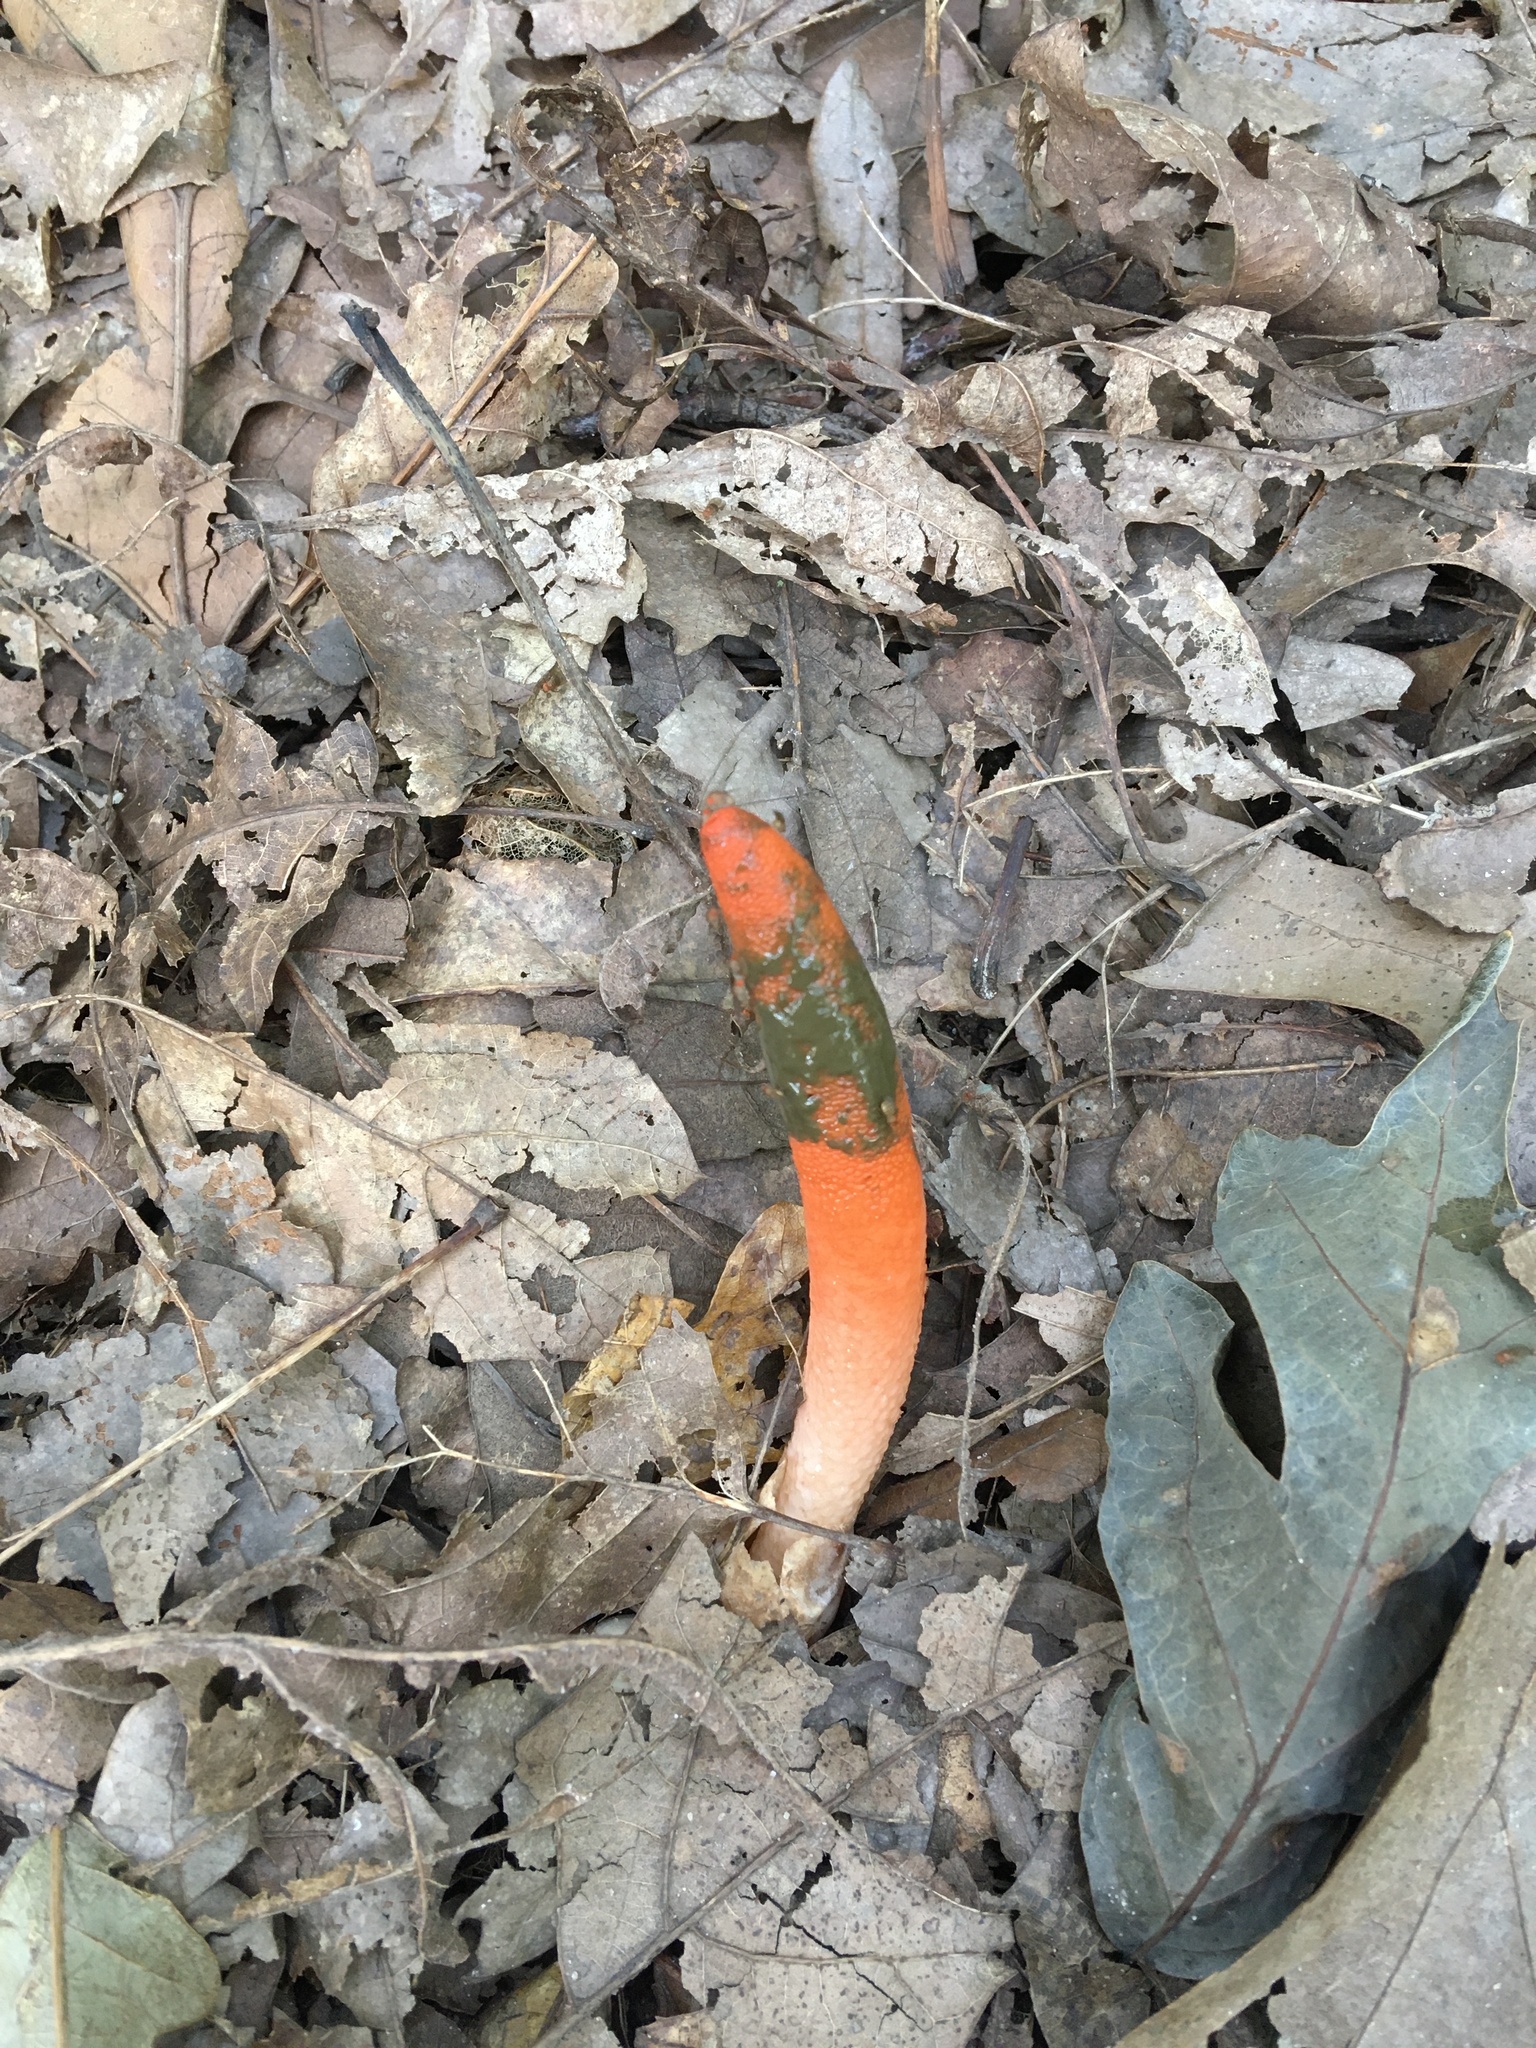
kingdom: Fungi
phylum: Basidiomycota
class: Agaricomycetes
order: Phallales
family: Phallaceae
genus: Mutinus
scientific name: Mutinus elegans
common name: Devil's dipstick
